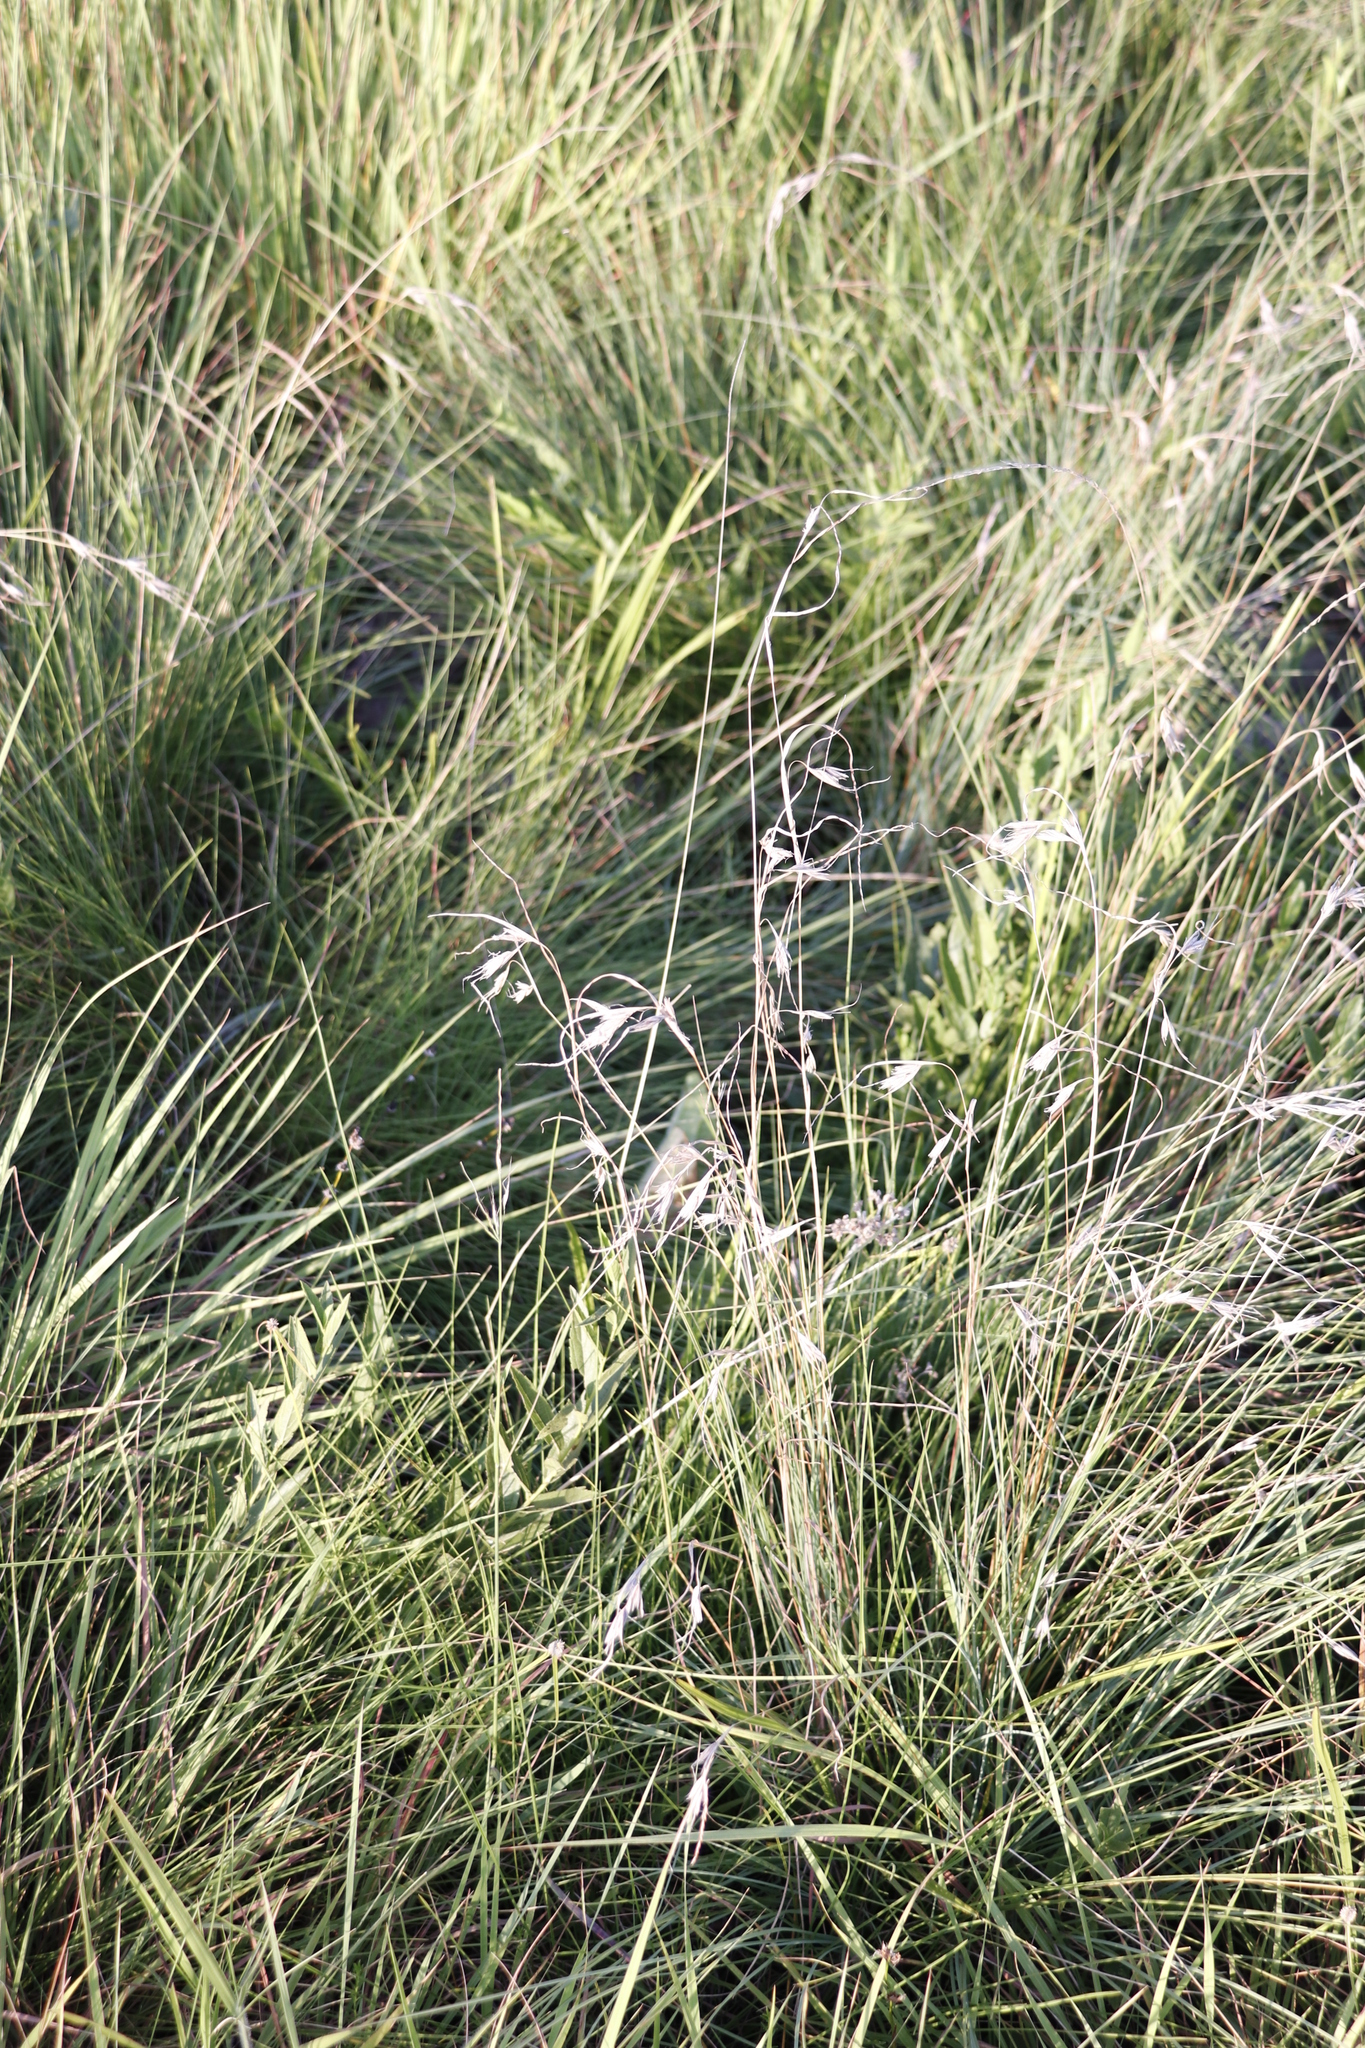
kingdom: Plantae
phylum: Tracheophyta
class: Liliopsida
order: Poales
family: Poaceae
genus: Themeda
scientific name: Themeda triandra
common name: Kangaroo grass
